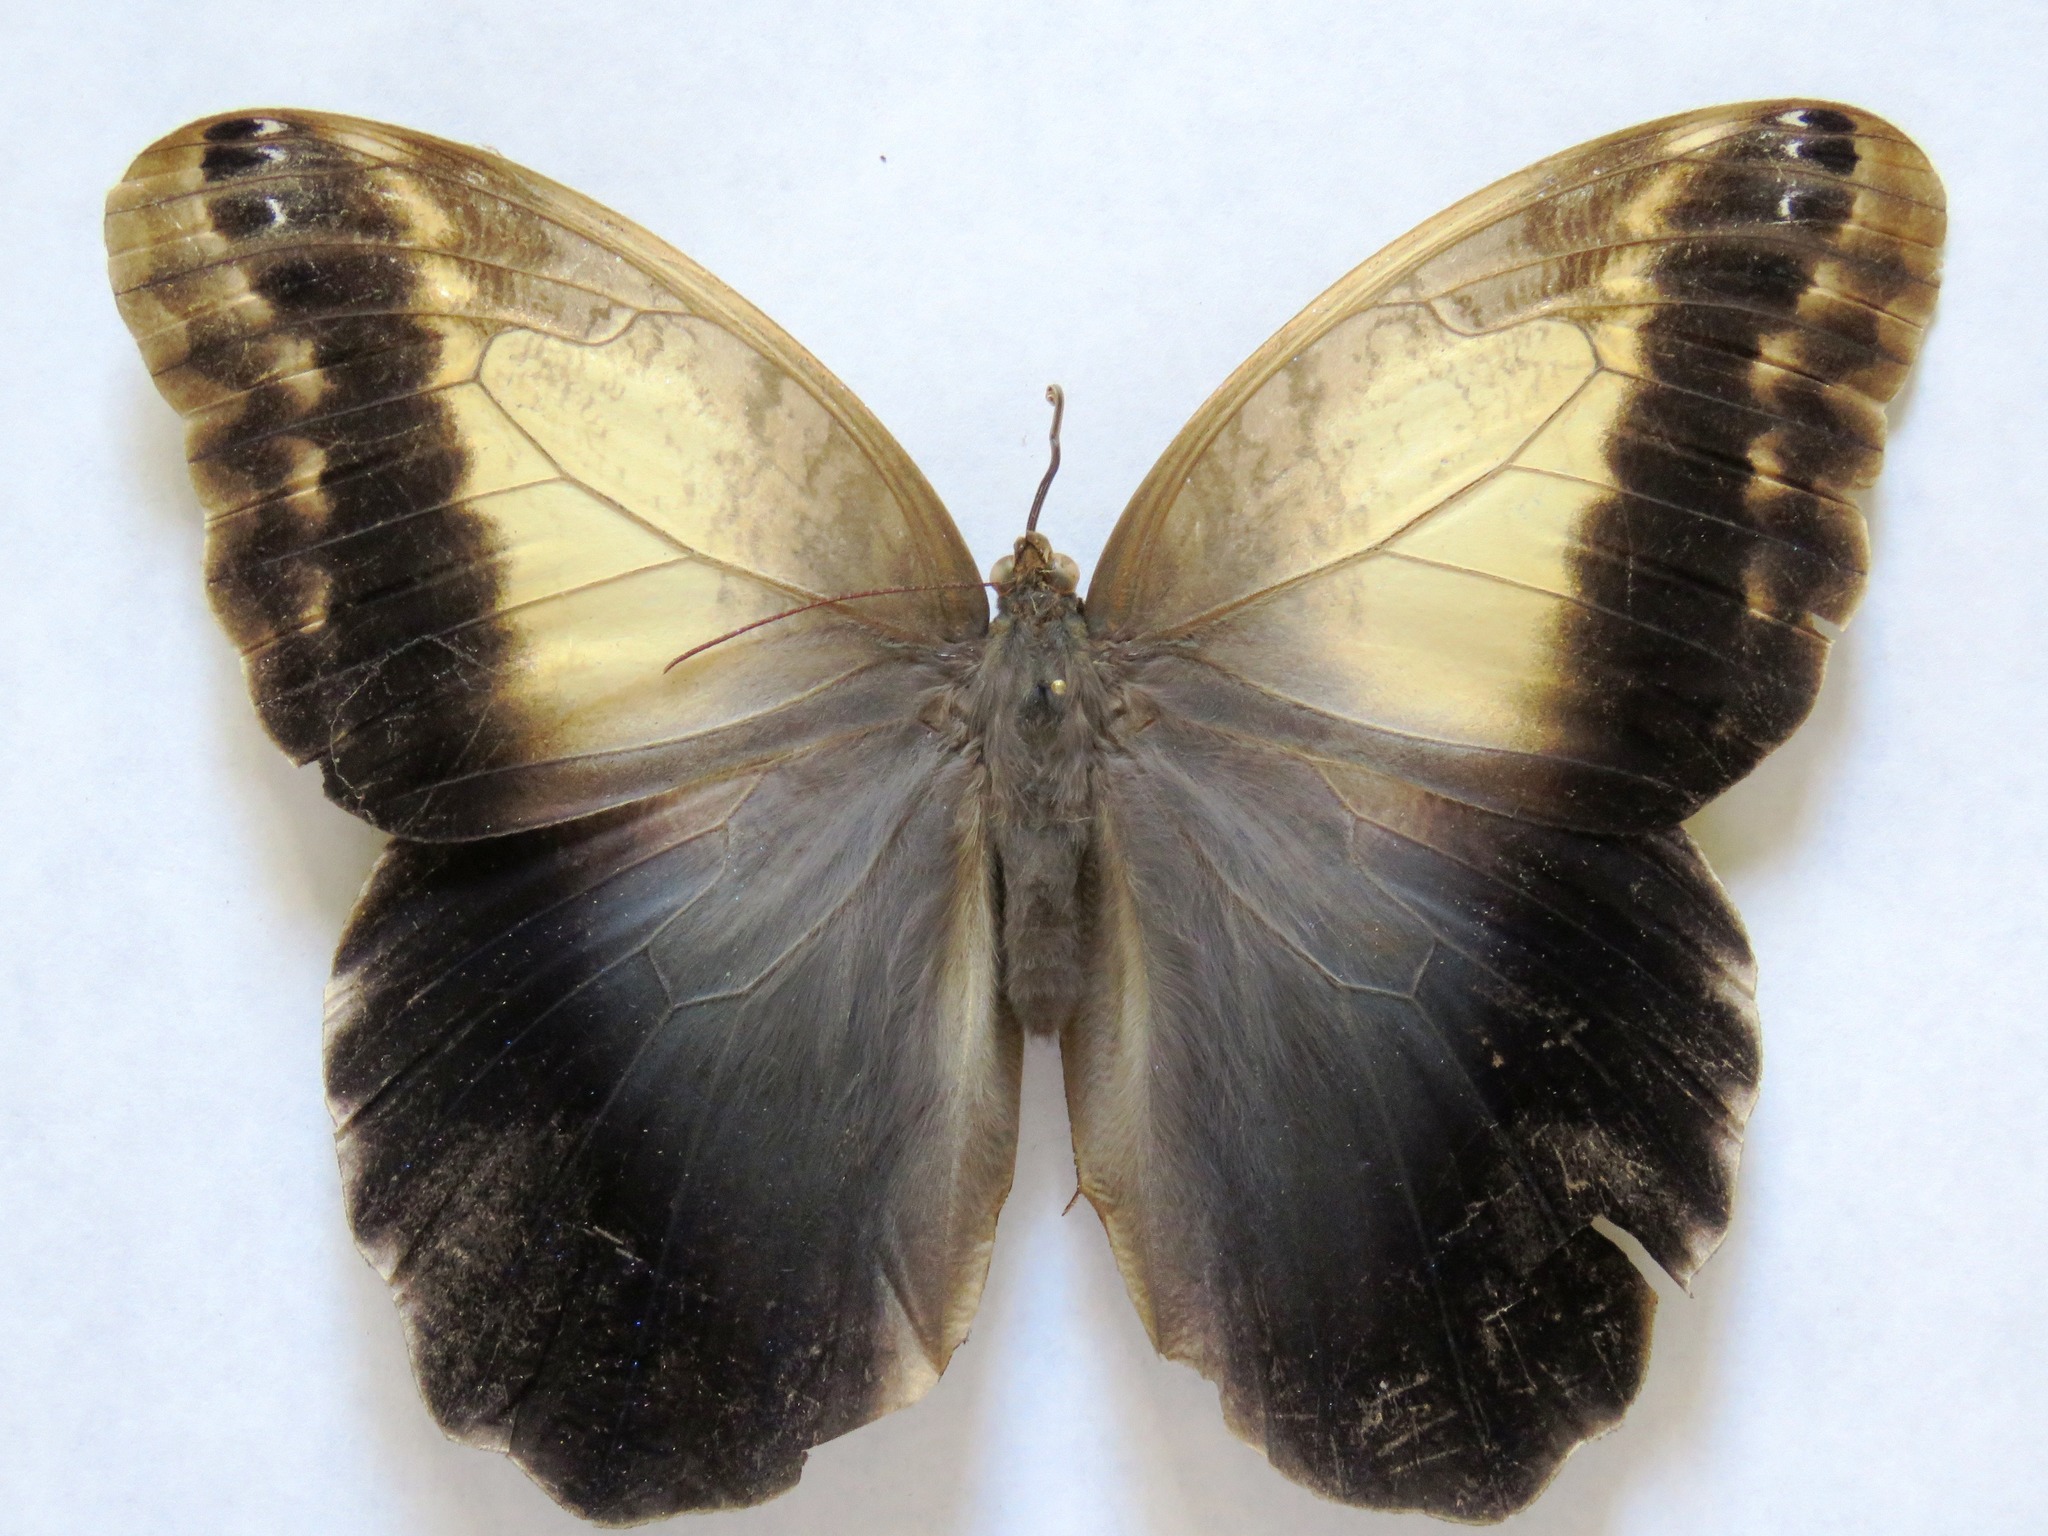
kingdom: Animalia
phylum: Arthropoda
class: Insecta
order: Lepidoptera
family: Nymphalidae
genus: Caligo
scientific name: Caligo telamonius
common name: Pale owl-butterfly
